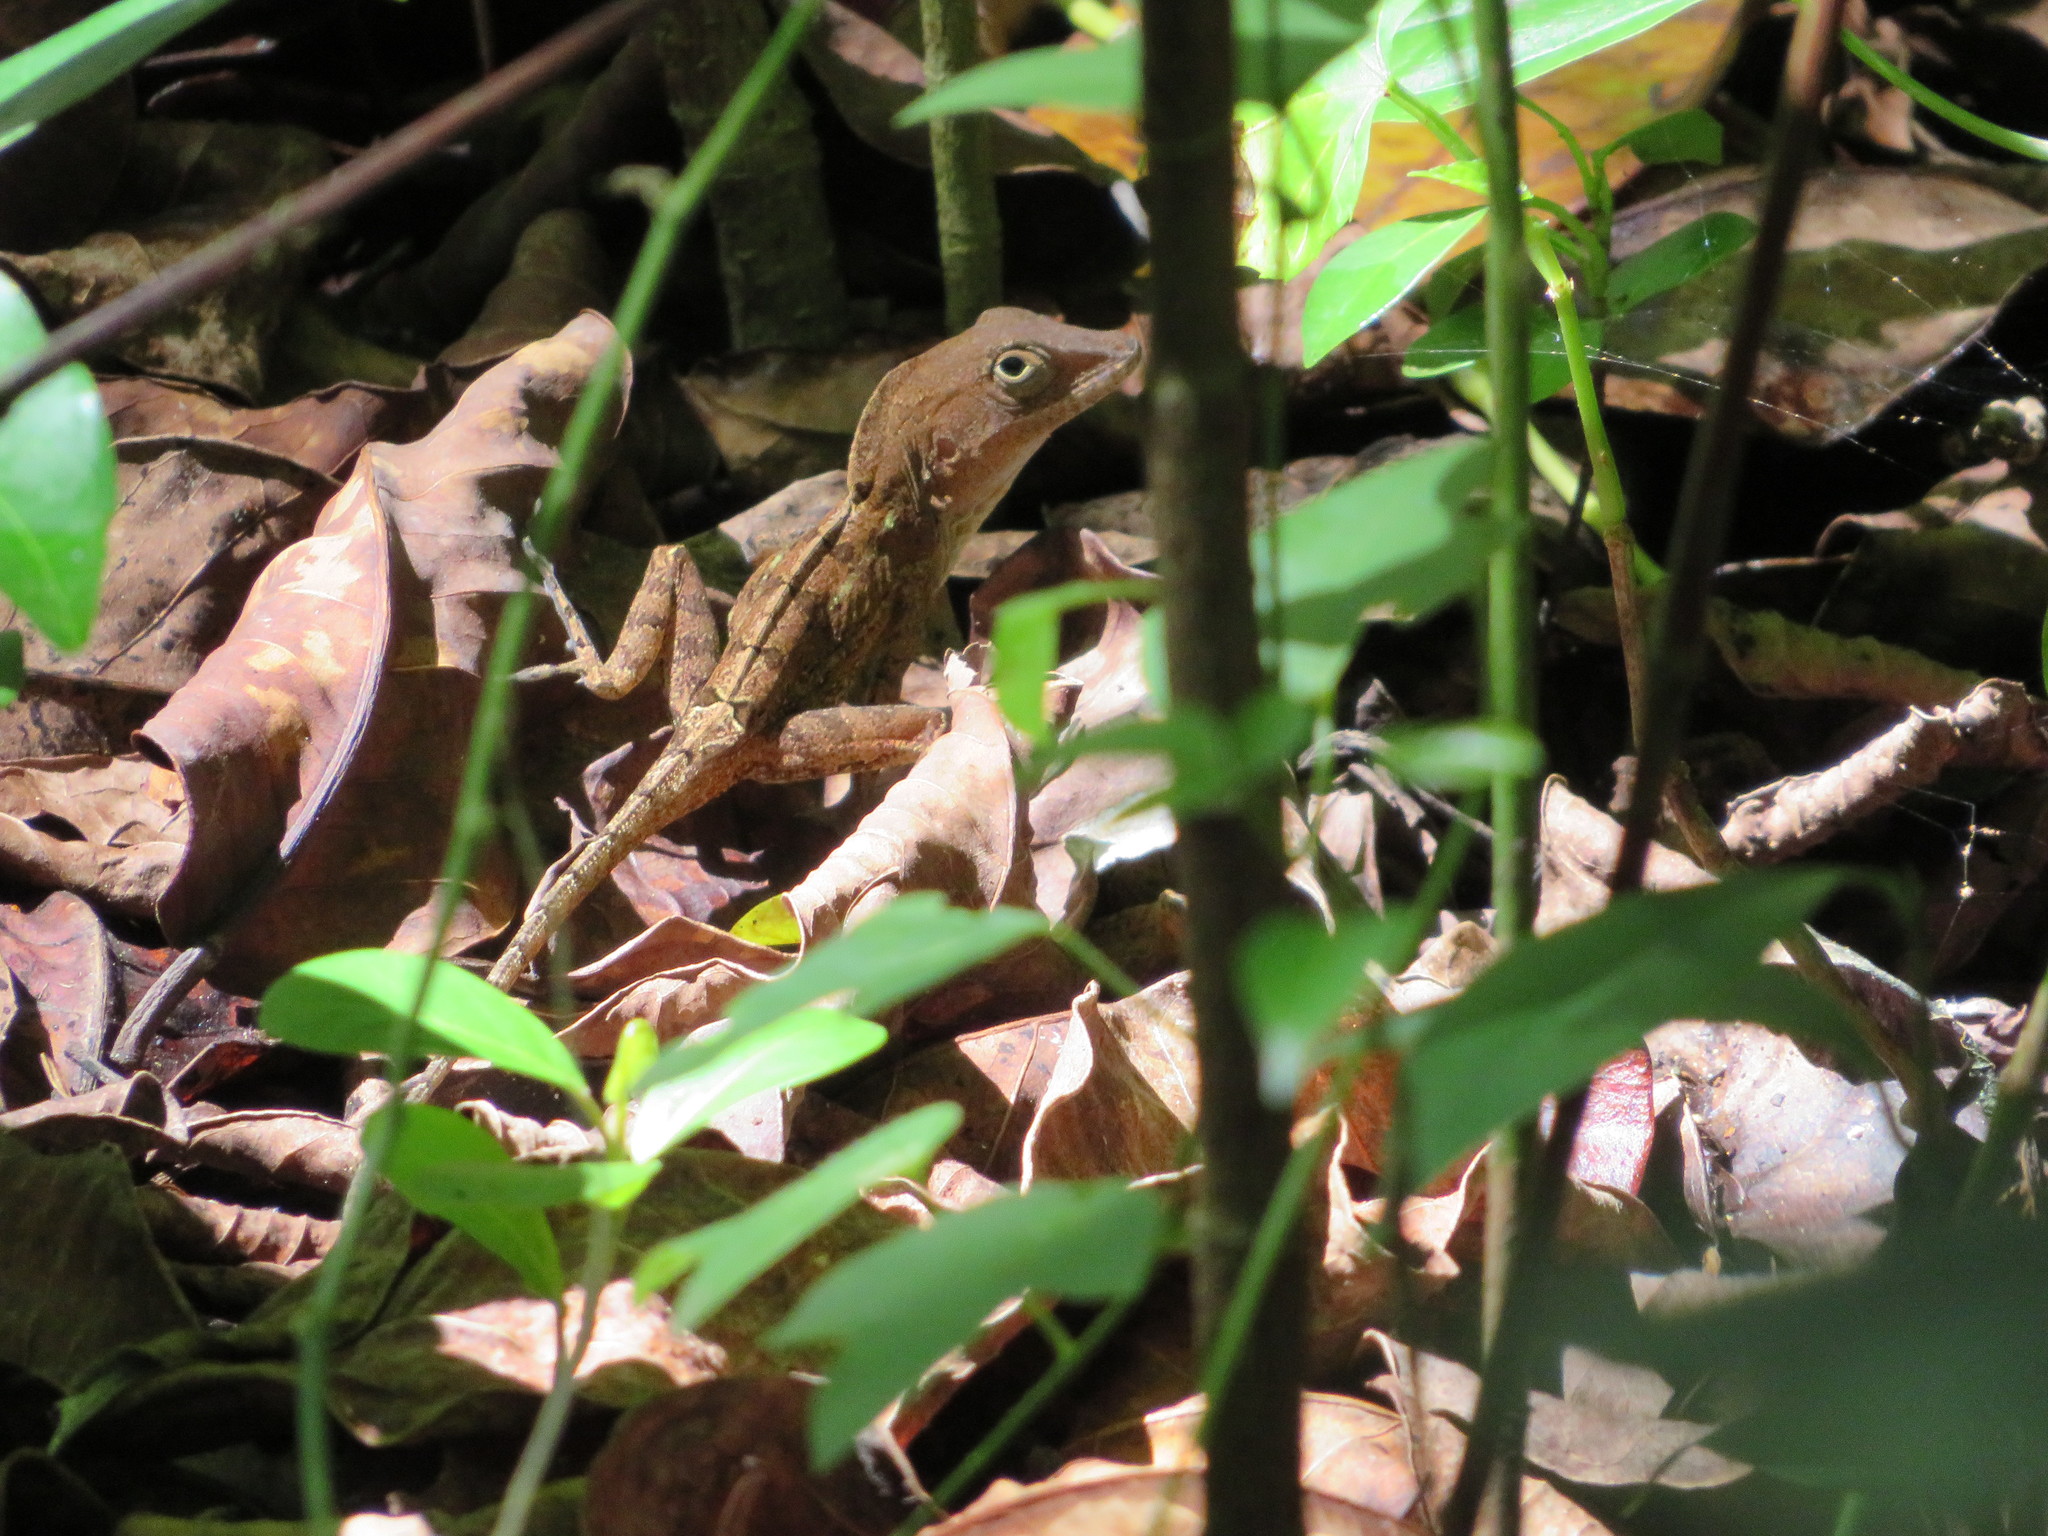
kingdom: Animalia
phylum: Chordata
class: Squamata
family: Dactyloidae
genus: Anolis
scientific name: Anolis hispaniolae
